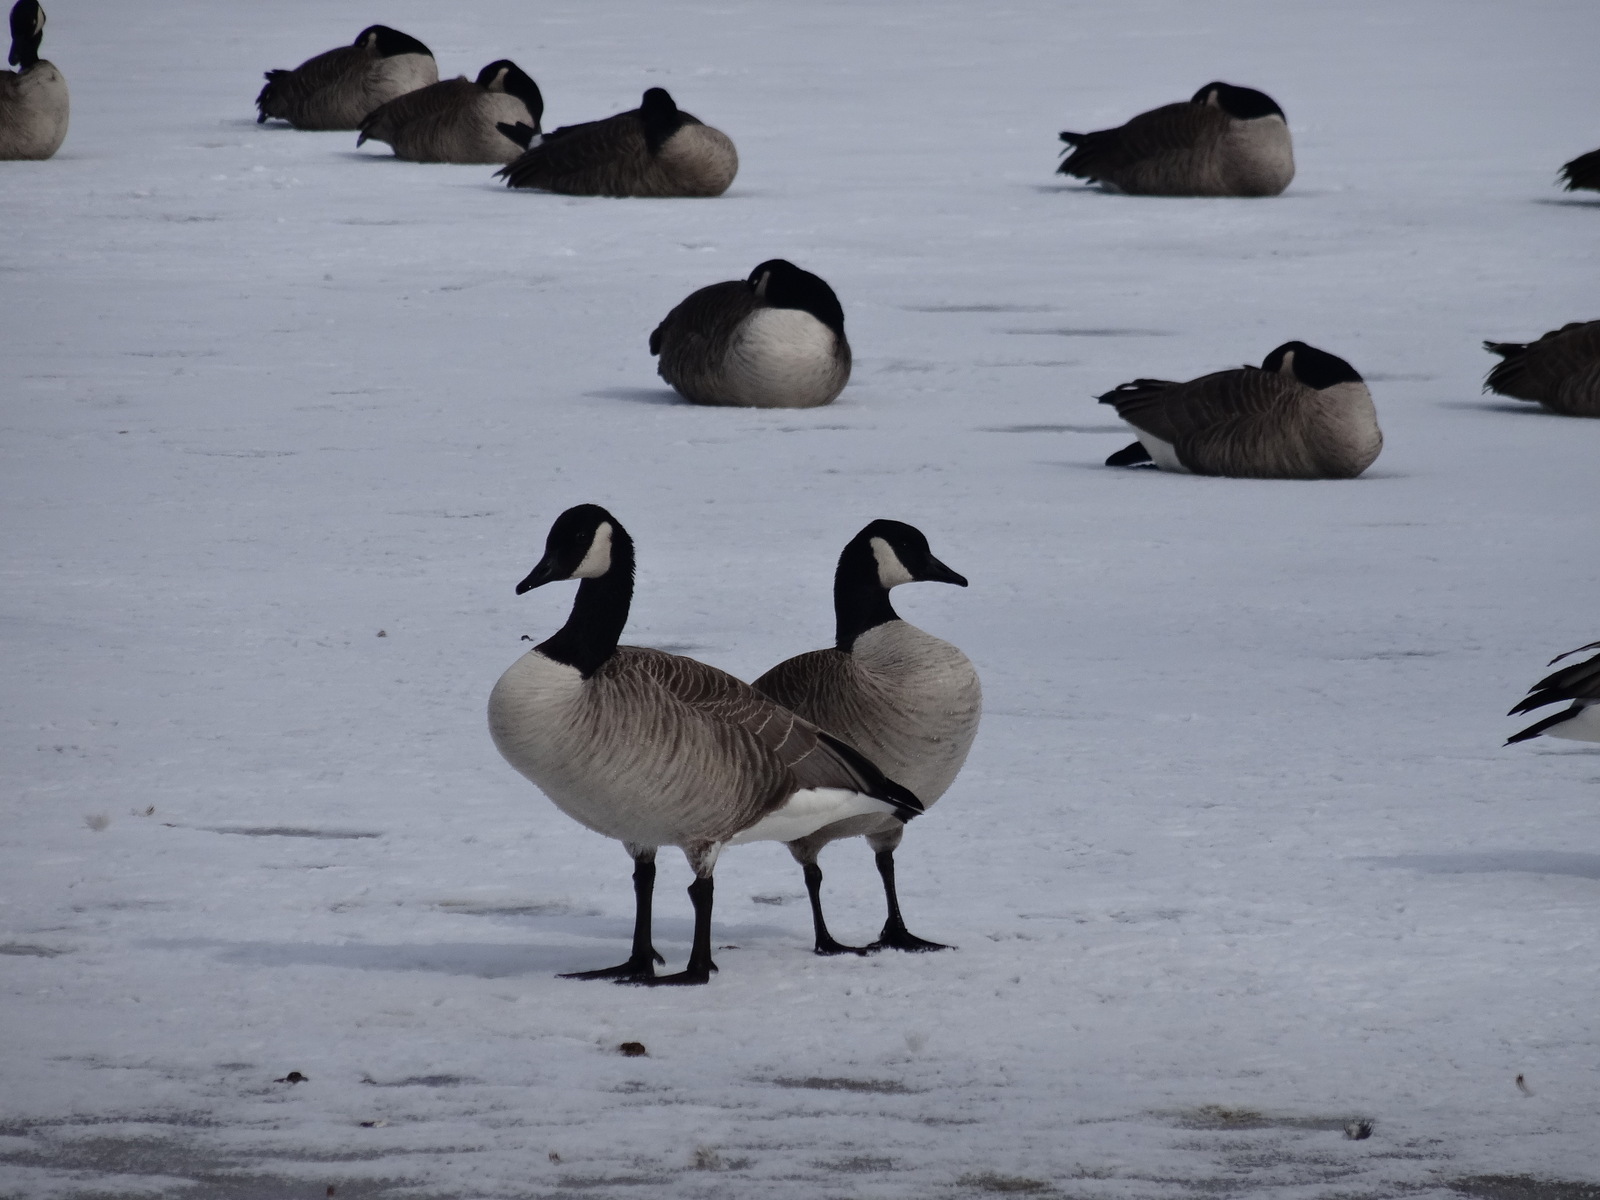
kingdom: Animalia
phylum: Chordata
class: Aves
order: Anseriformes
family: Anatidae
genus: Branta
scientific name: Branta canadensis
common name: Canada goose
